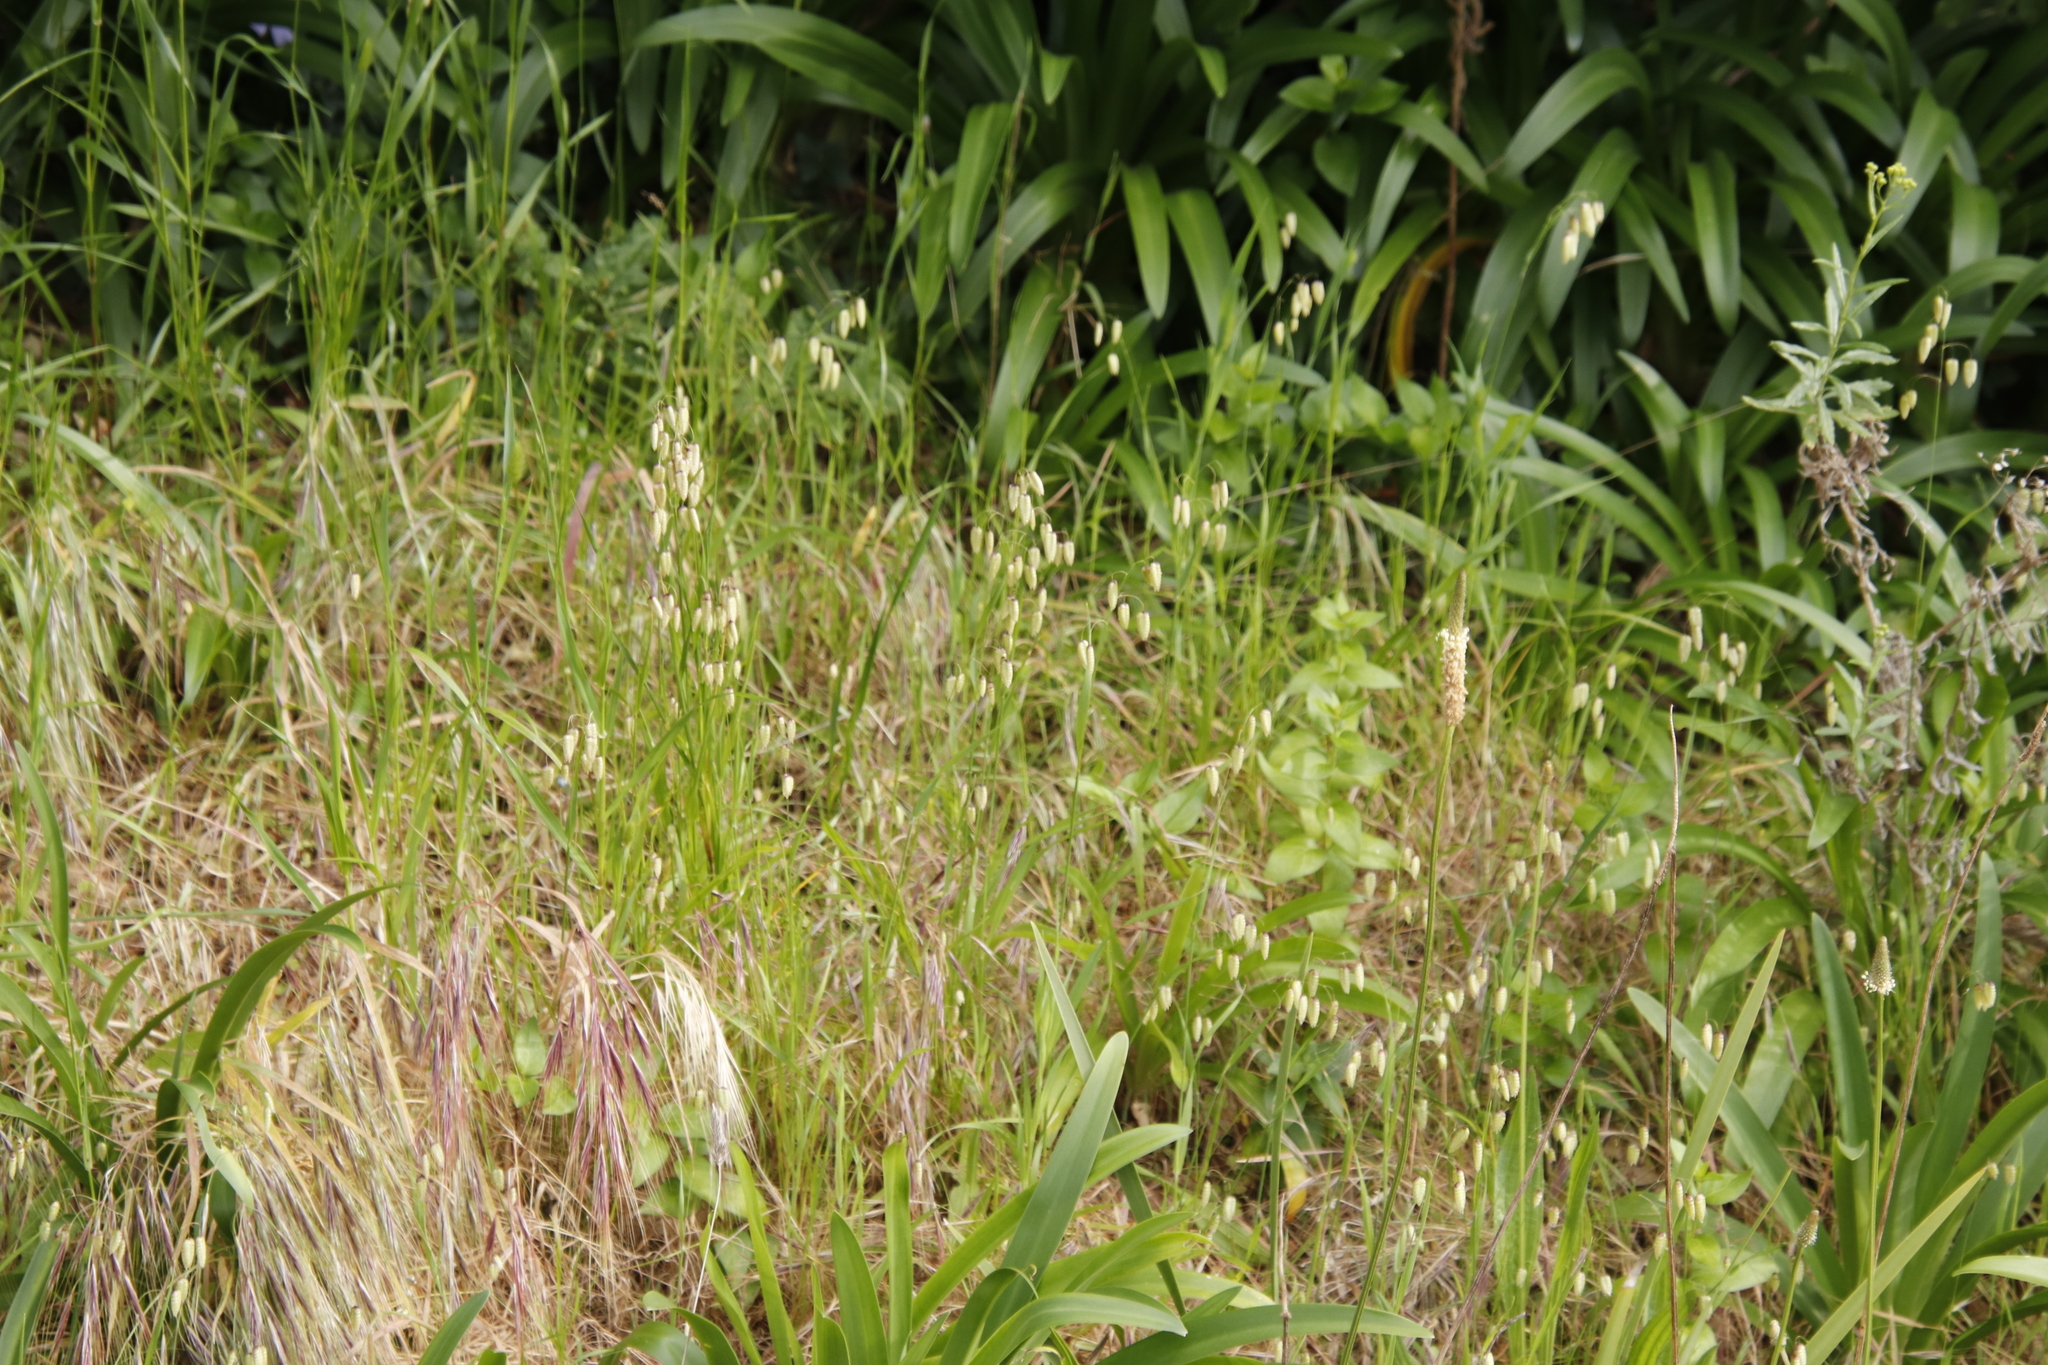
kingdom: Plantae
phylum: Tracheophyta
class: Liliopsida
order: Poales
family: Poaceae
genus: Briza
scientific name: Briza maxima
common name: Big quakinggrass
